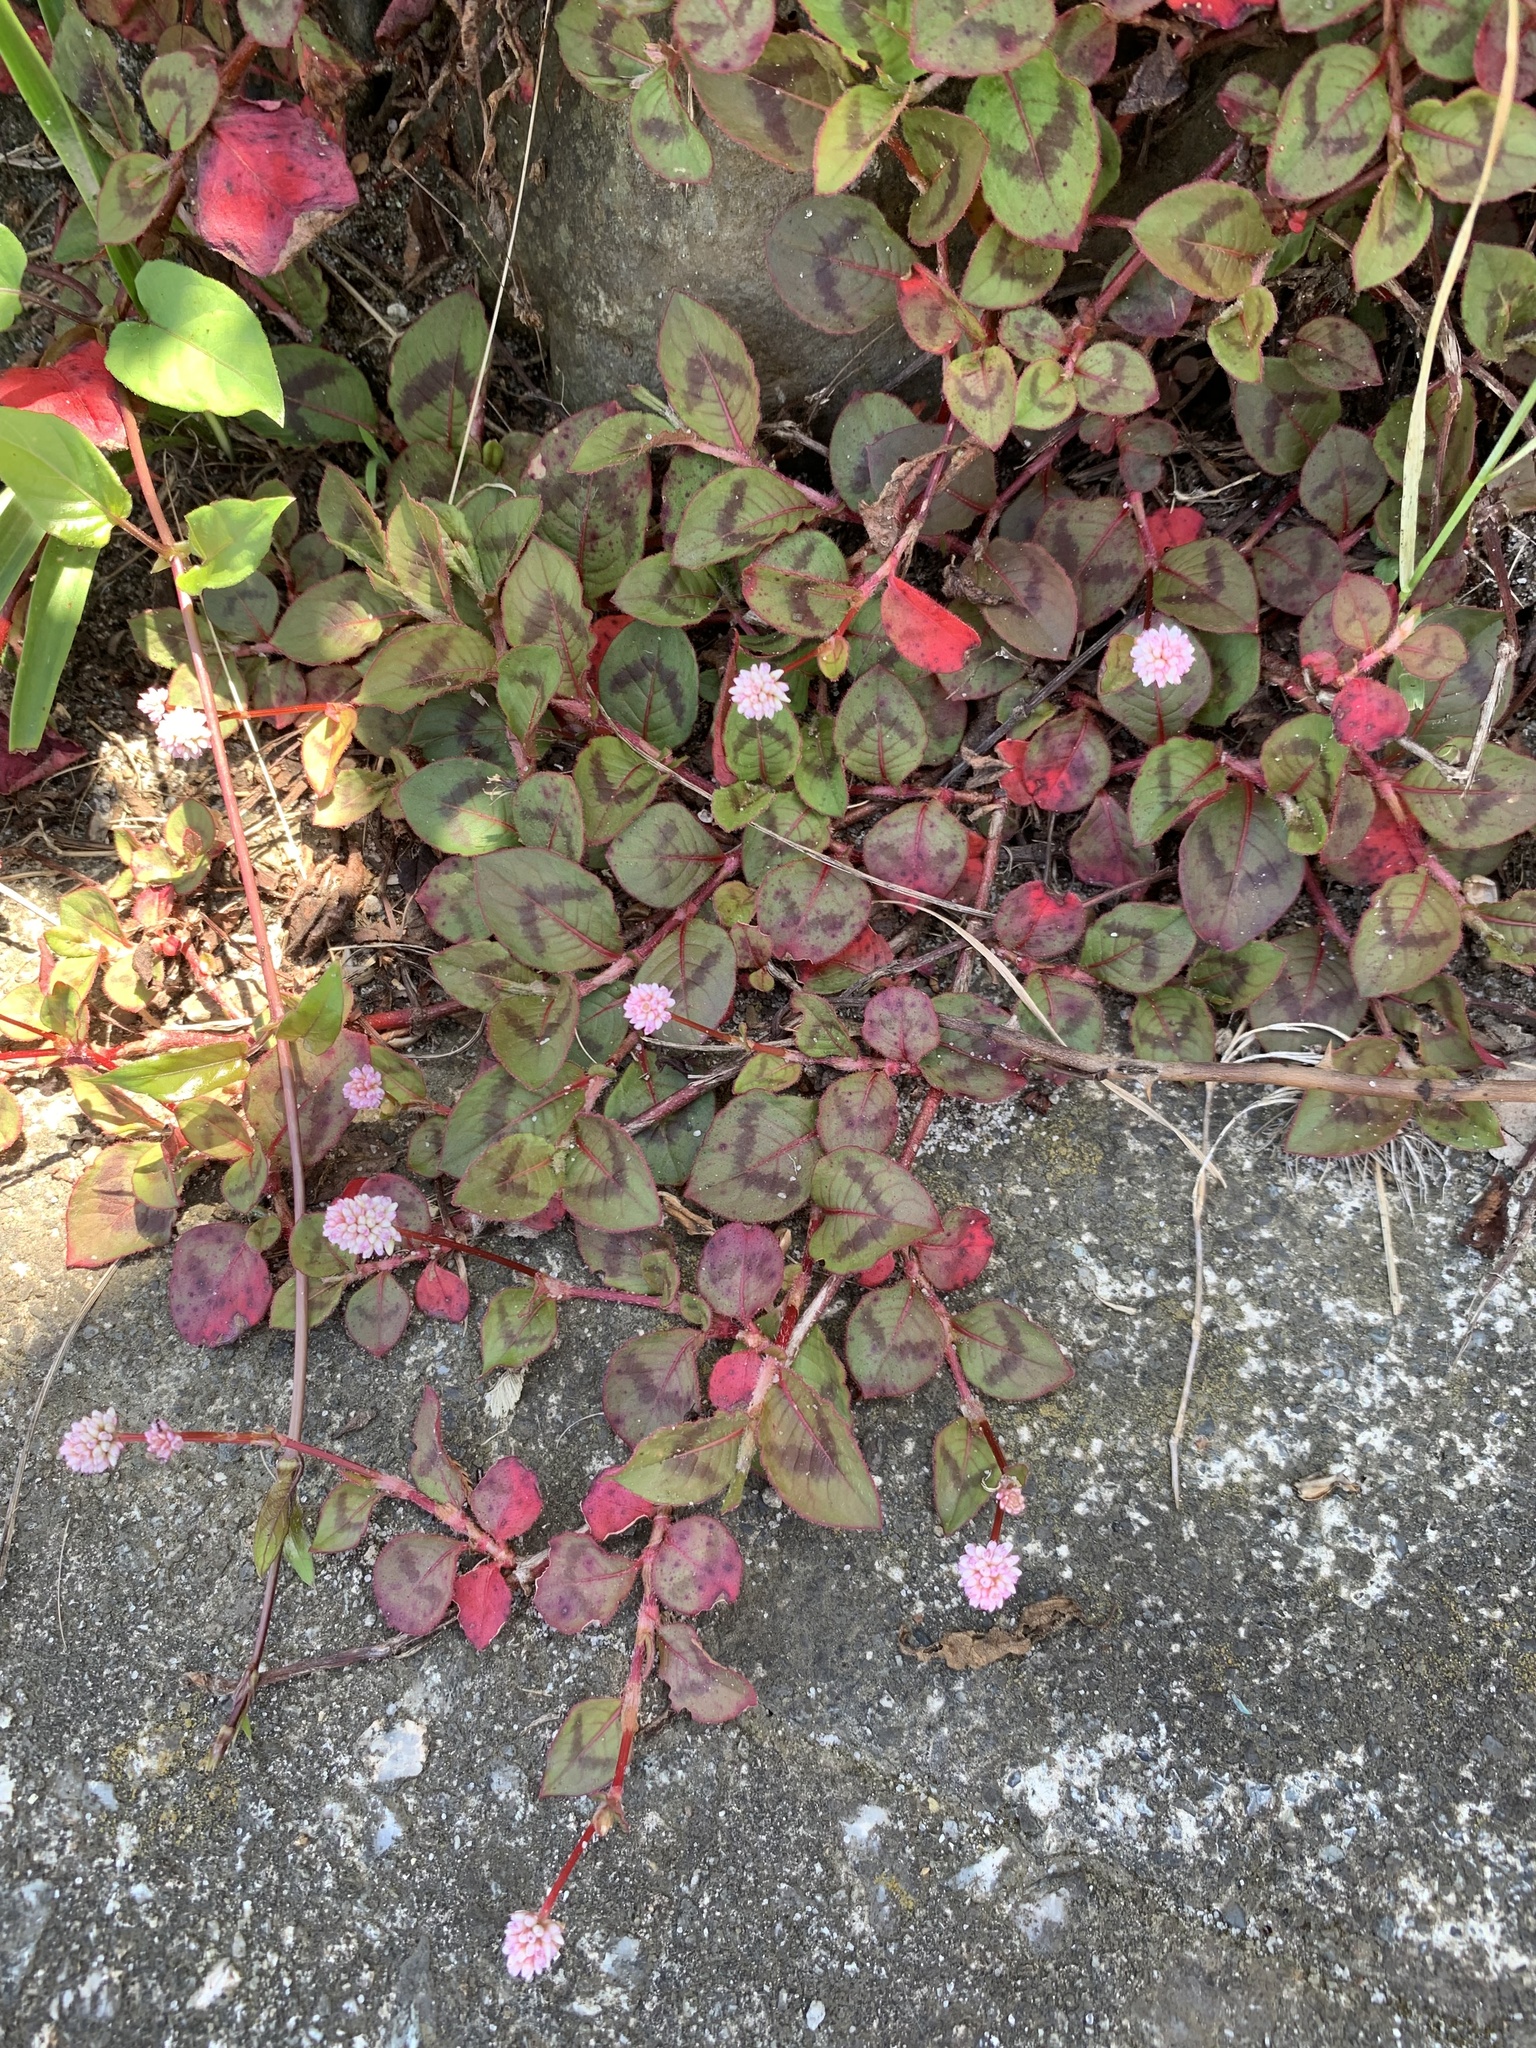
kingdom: Plantae
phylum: Tracheophyta
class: Magnoliopsida
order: Caryophyllales
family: Polygonaceae
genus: Persicaria
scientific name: Persicaria capitata
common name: Pinkhead smartweed
